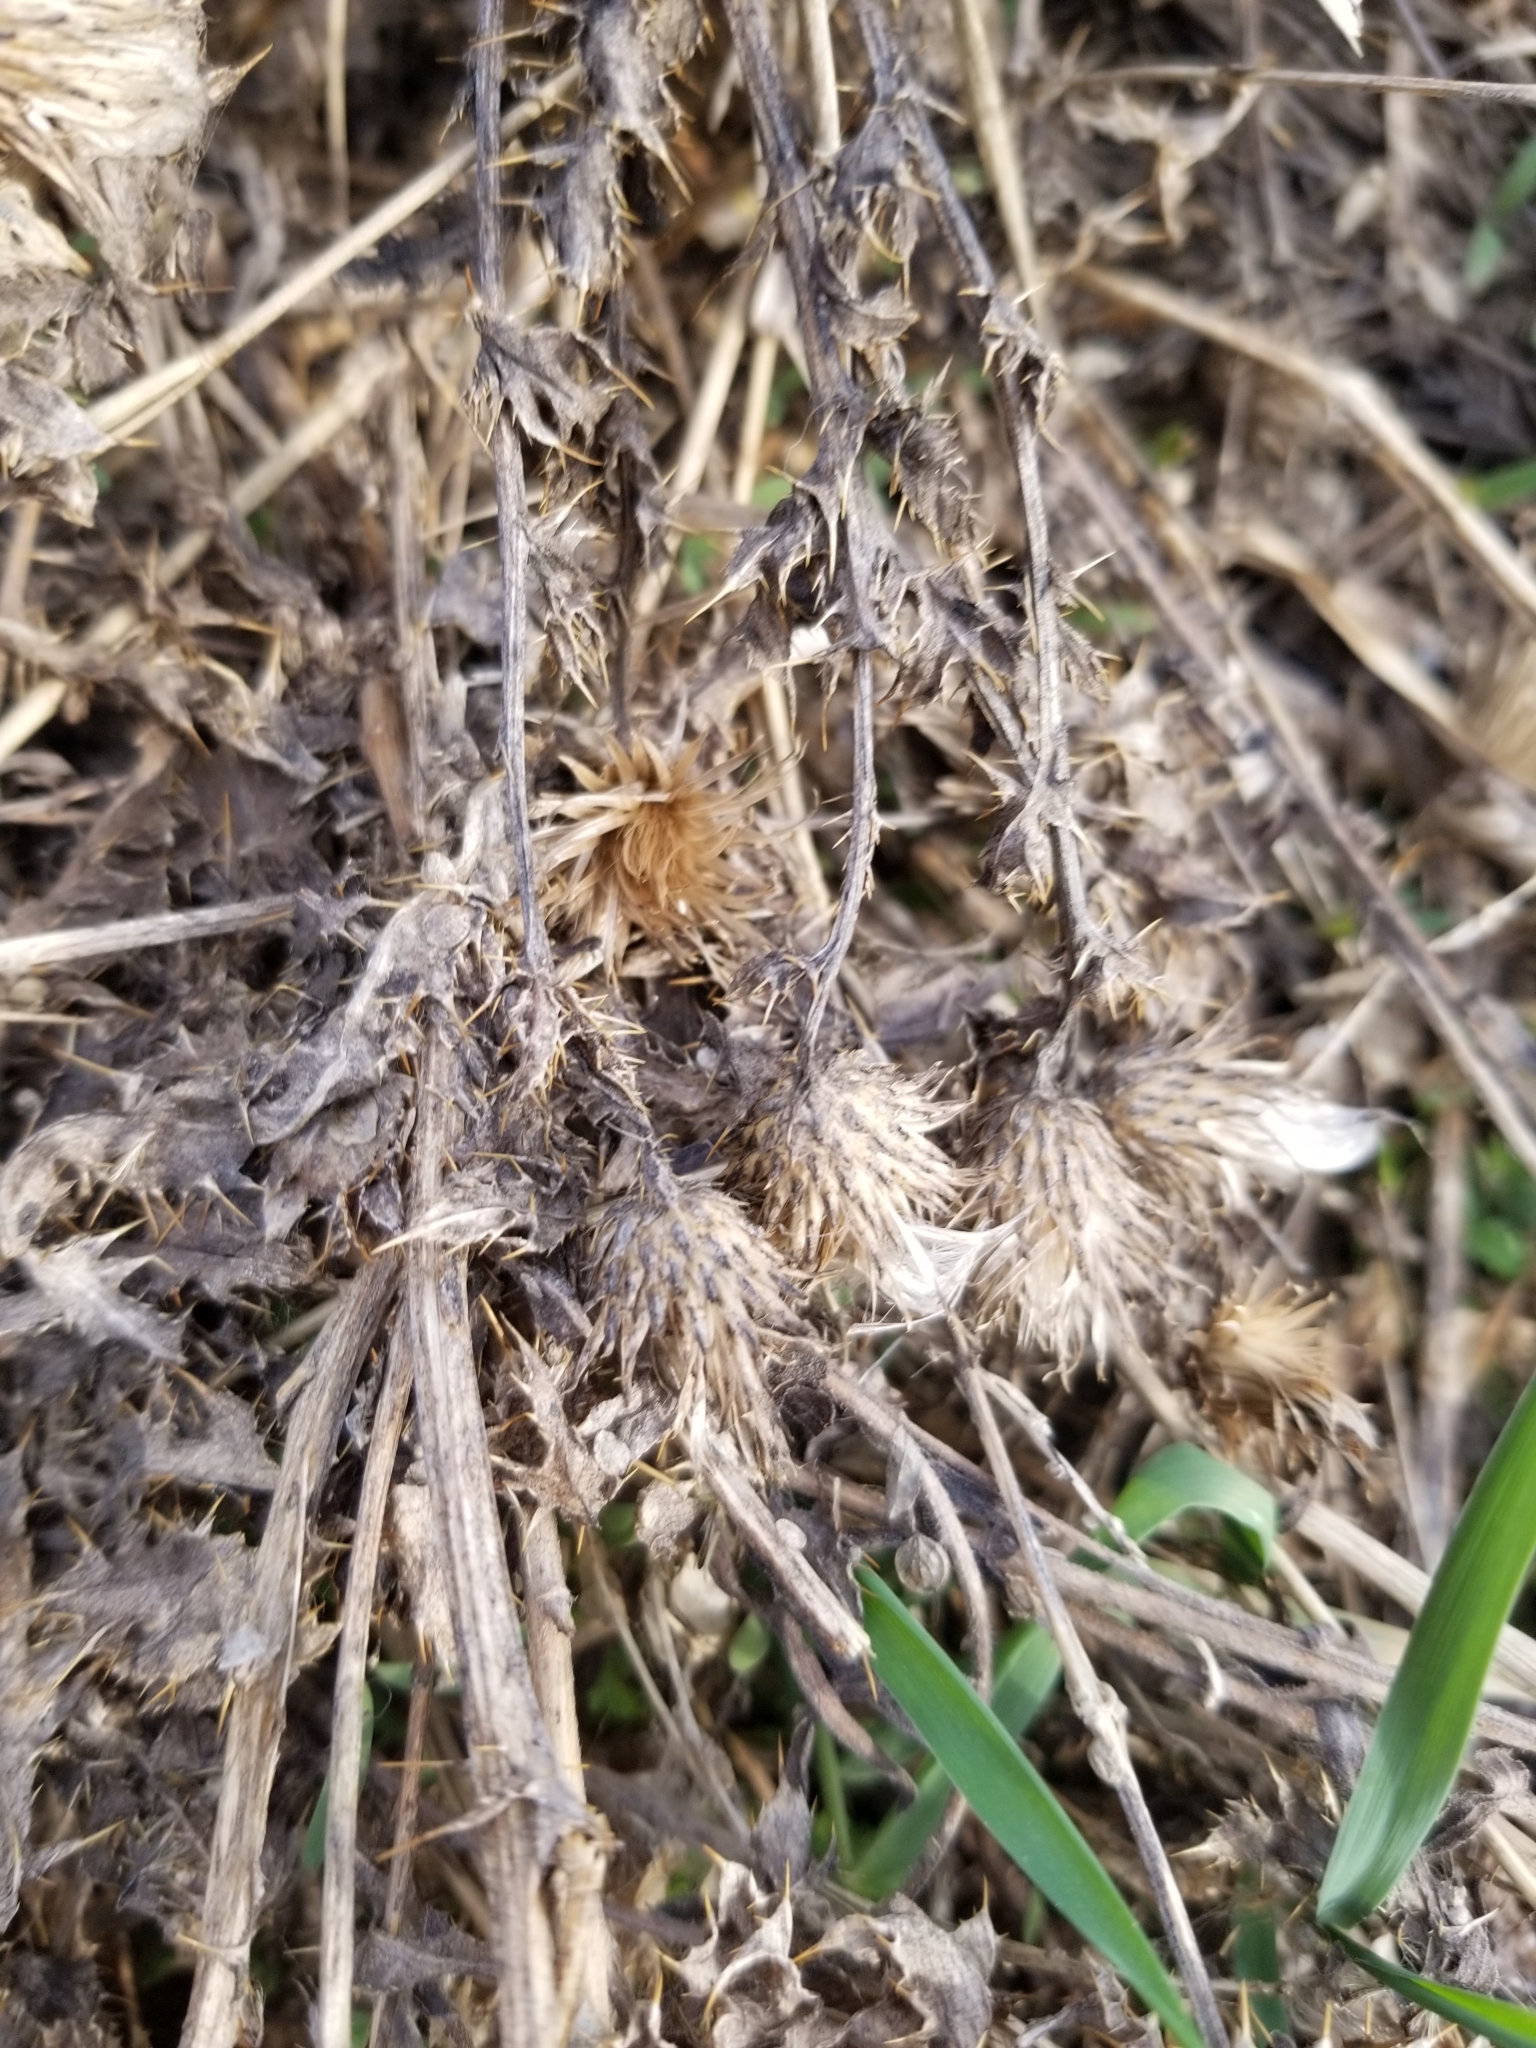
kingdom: Plantae
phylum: Tracheophyta
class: Magnoliopsida
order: Asterales
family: Asteraceae
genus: Cirsium
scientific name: Cirsium arvense
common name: Creeping thistle
